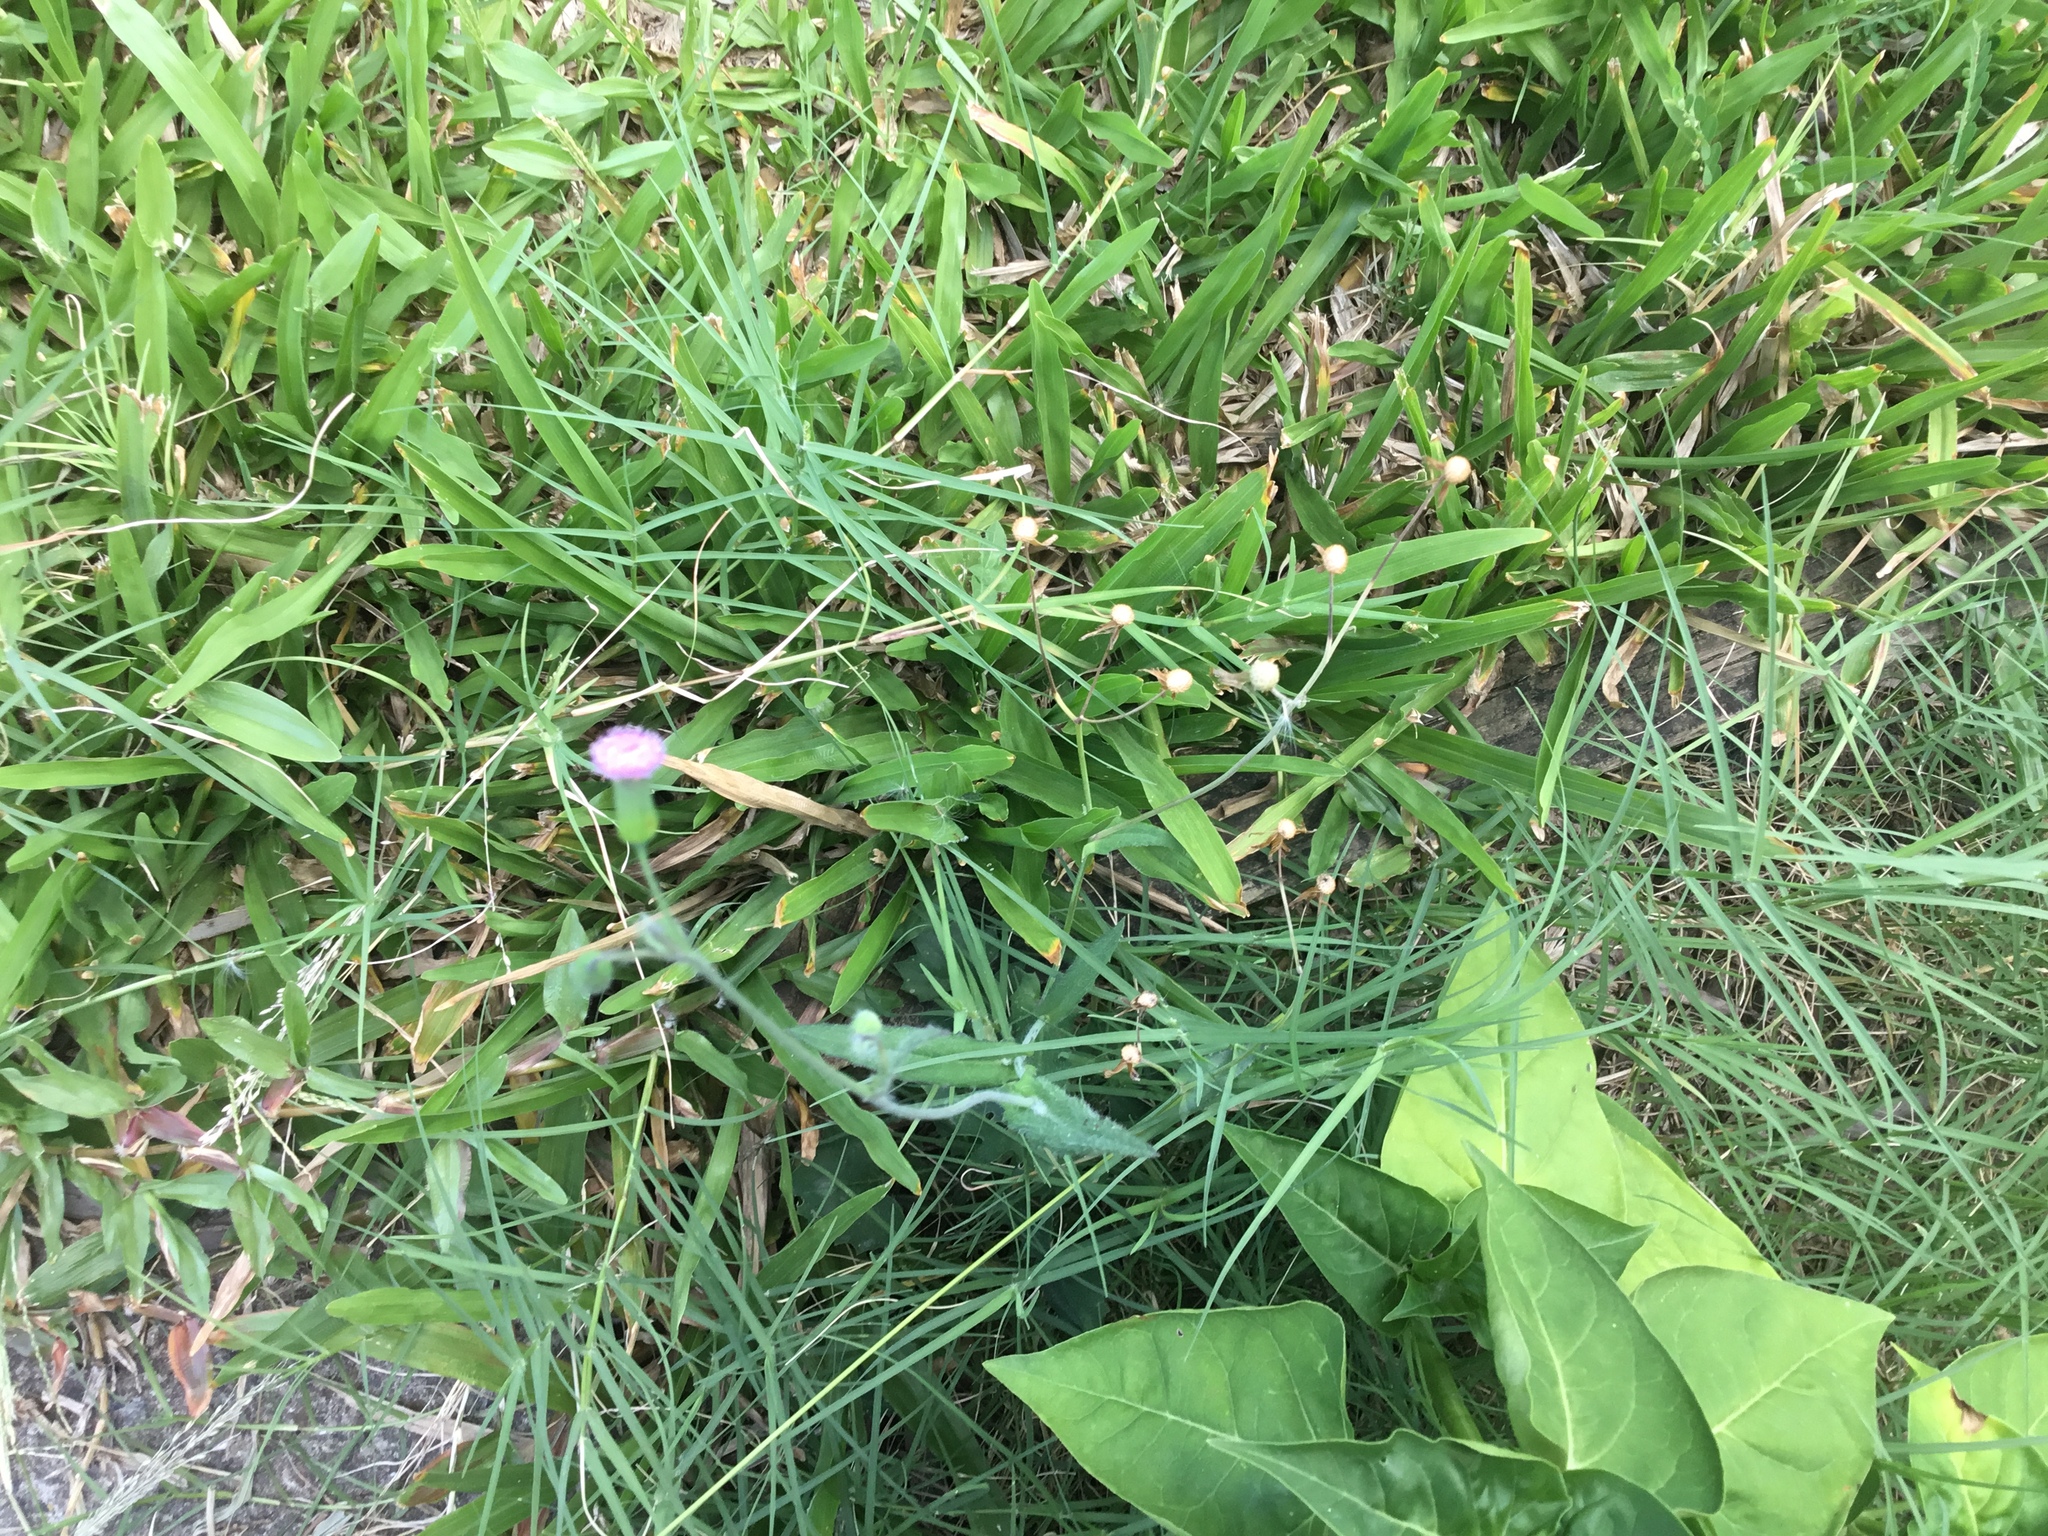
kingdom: Plantae
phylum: Tracheophyta
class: Magnoliopsida
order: Asterales
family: Asteraceae
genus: Emilia
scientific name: Emilia javanica
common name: Tassel-flower
